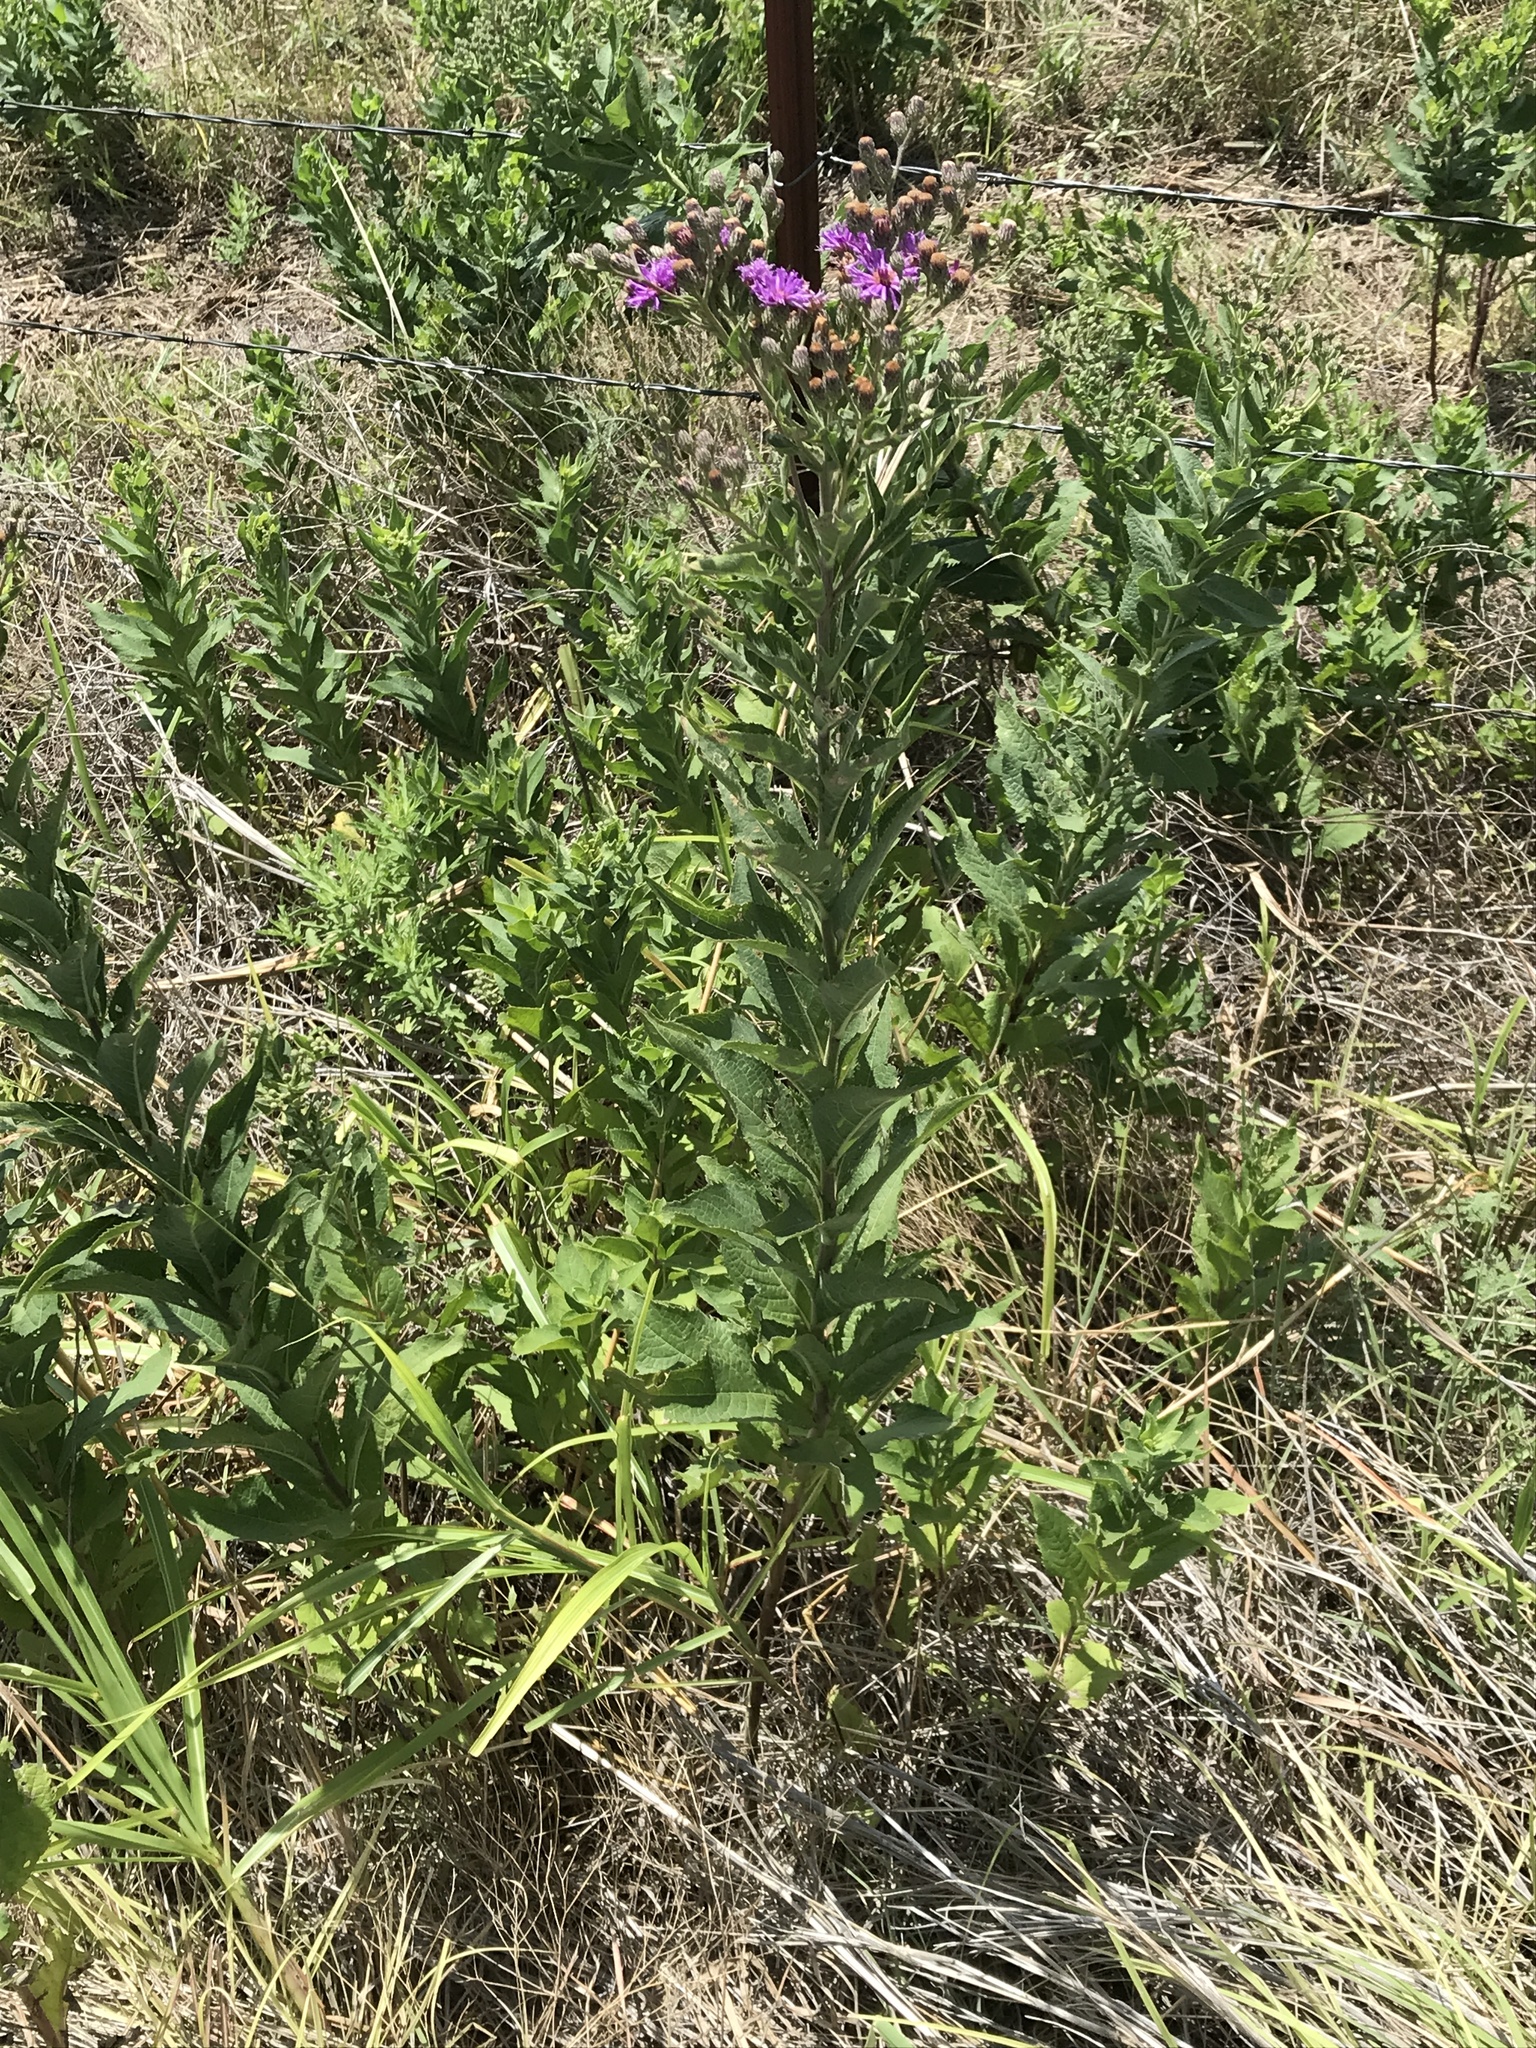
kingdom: Plantae
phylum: Tracheophyta
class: Magnoliopsida
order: Asterales
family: Asteraceae
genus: Vernonia
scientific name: Vernonia baldwinii
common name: Western ironweed
